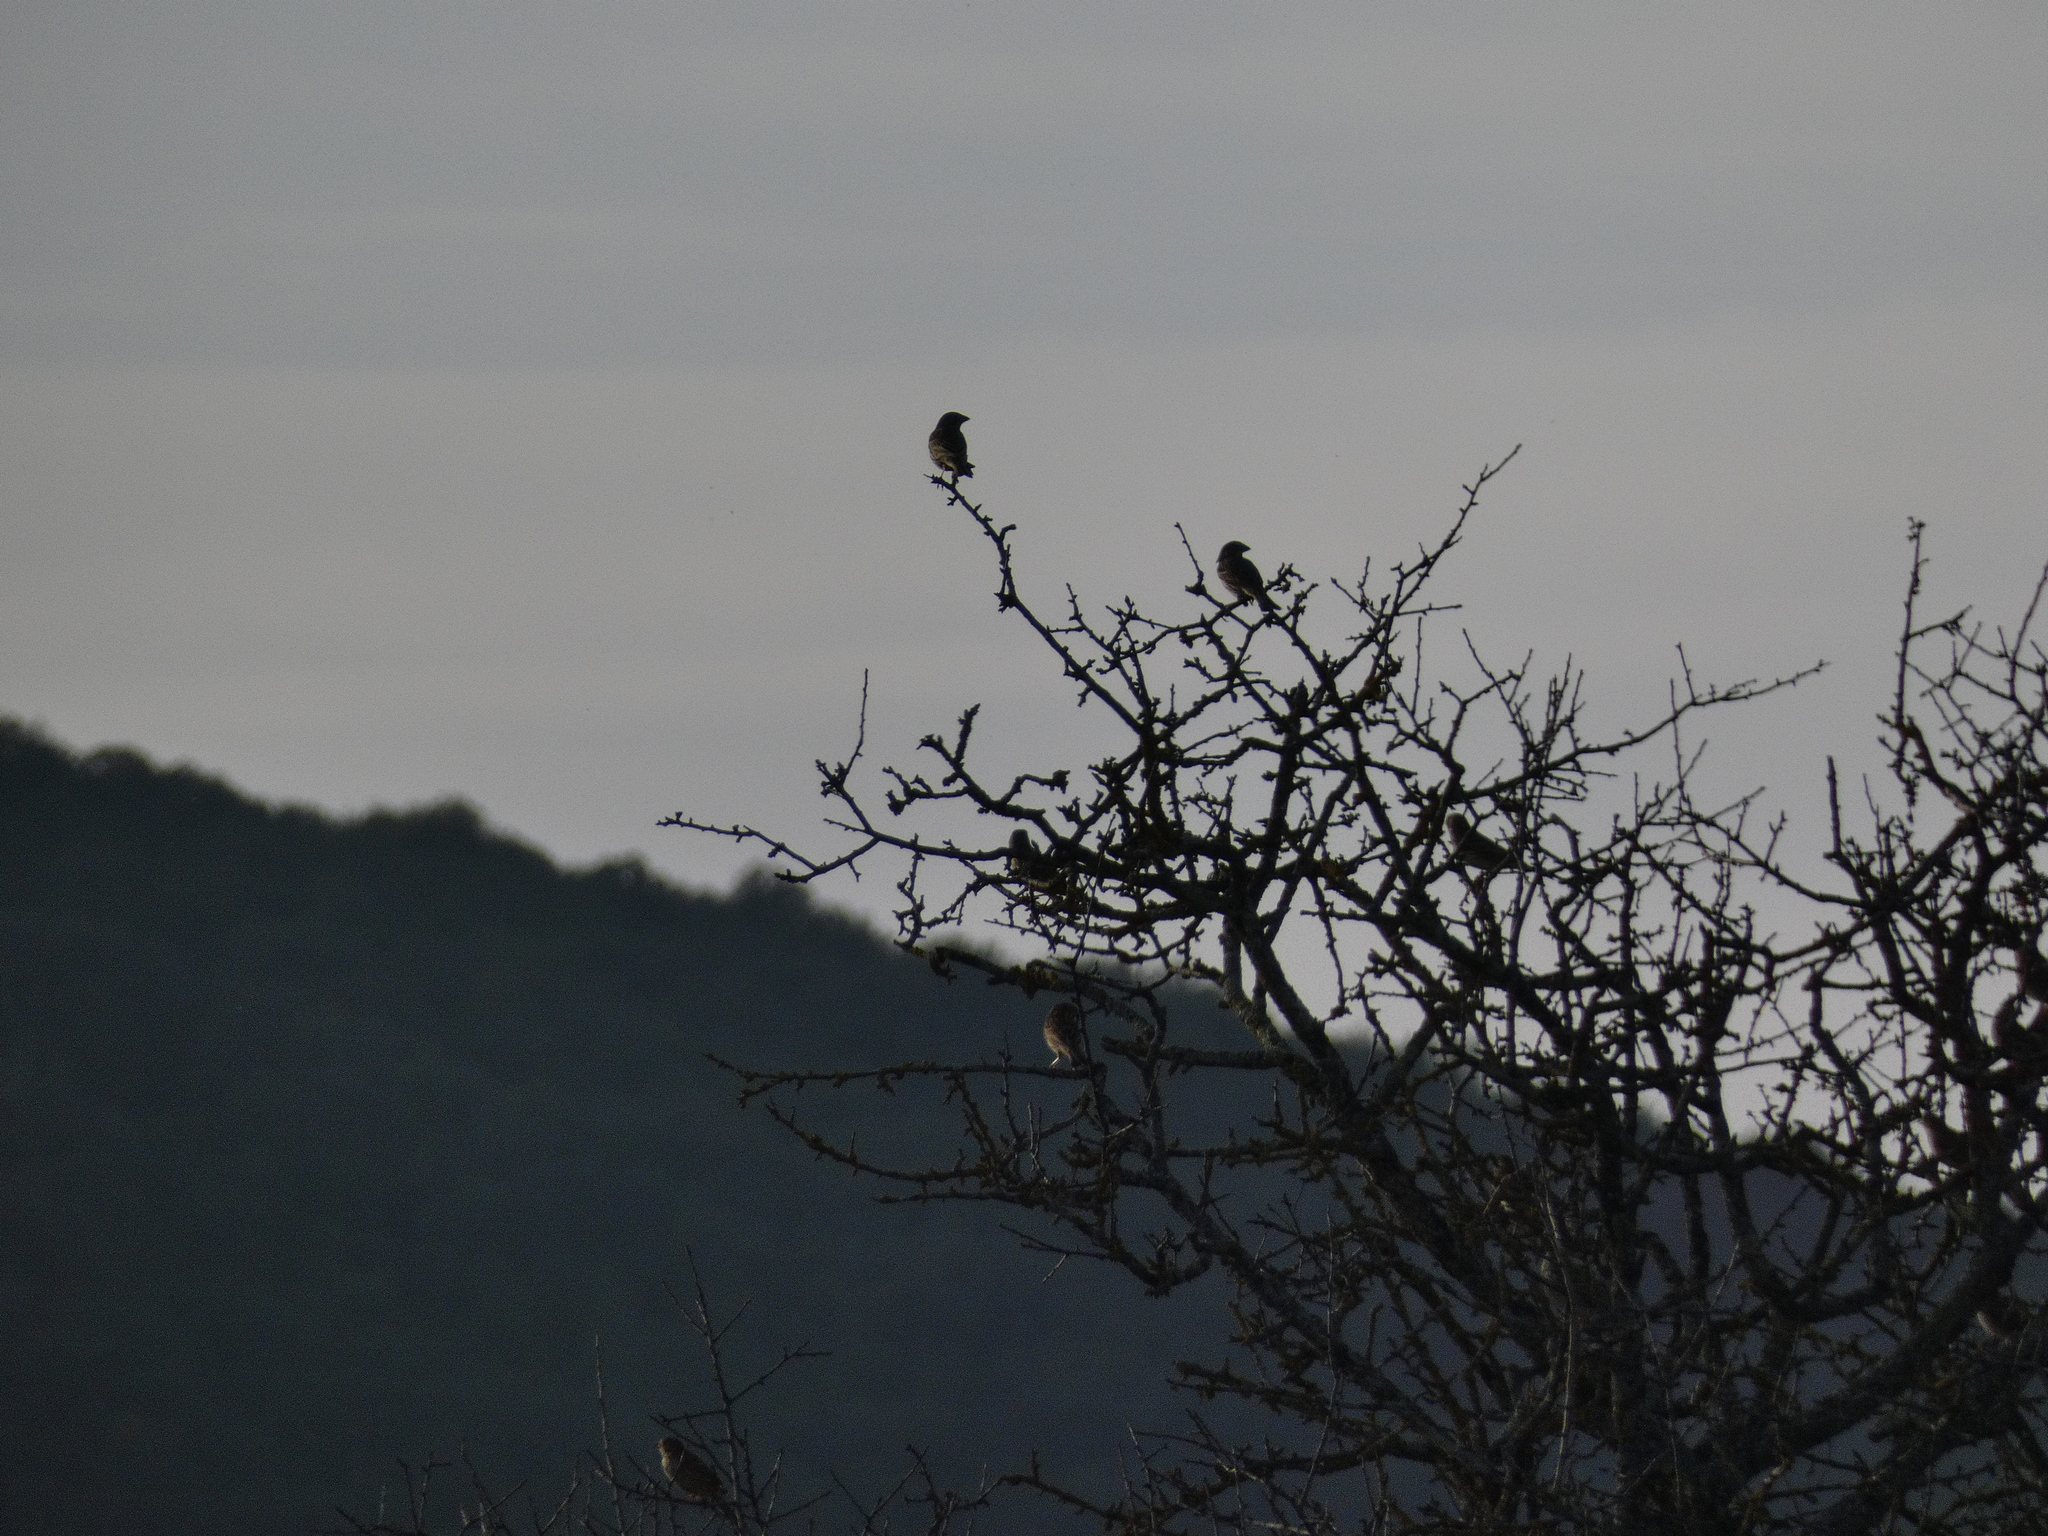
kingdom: Animalia
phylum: Chordata
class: Aves
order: Passeriformes
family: Emberizidae
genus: Emberiza
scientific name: Emberiza calandra
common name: Corn bunting
